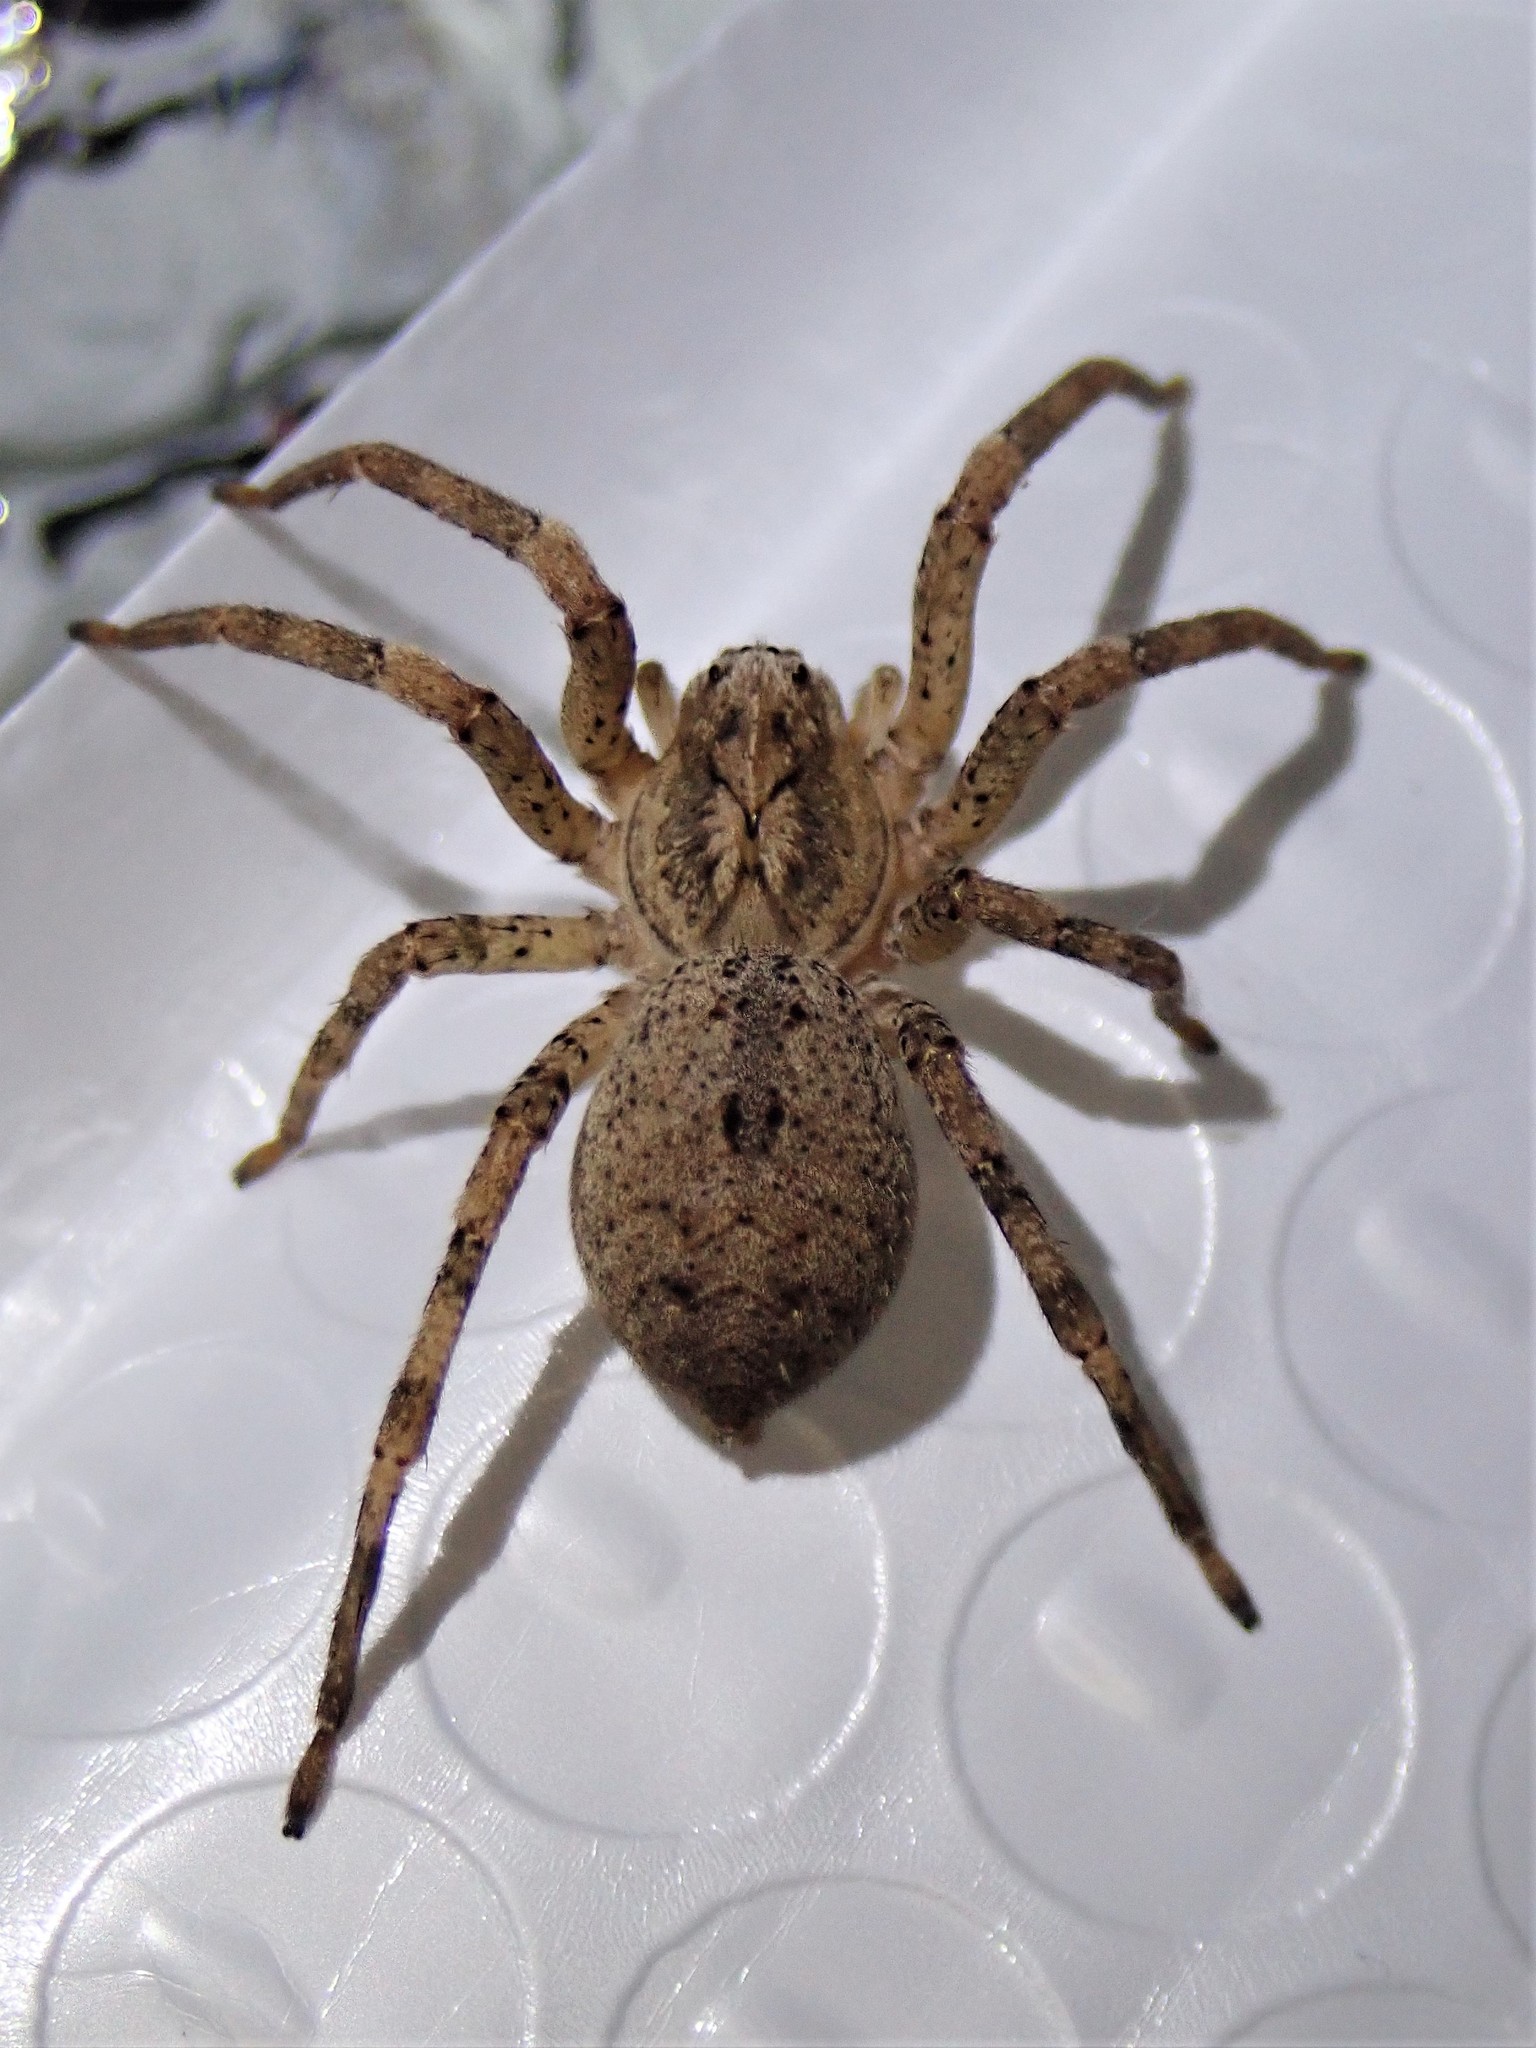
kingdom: Animalia
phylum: Arthropoda
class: Arachnida
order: Araneae
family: Zoropsidae
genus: Zoropsis
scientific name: Zoropsis spinimana
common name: Zoropsid spider
